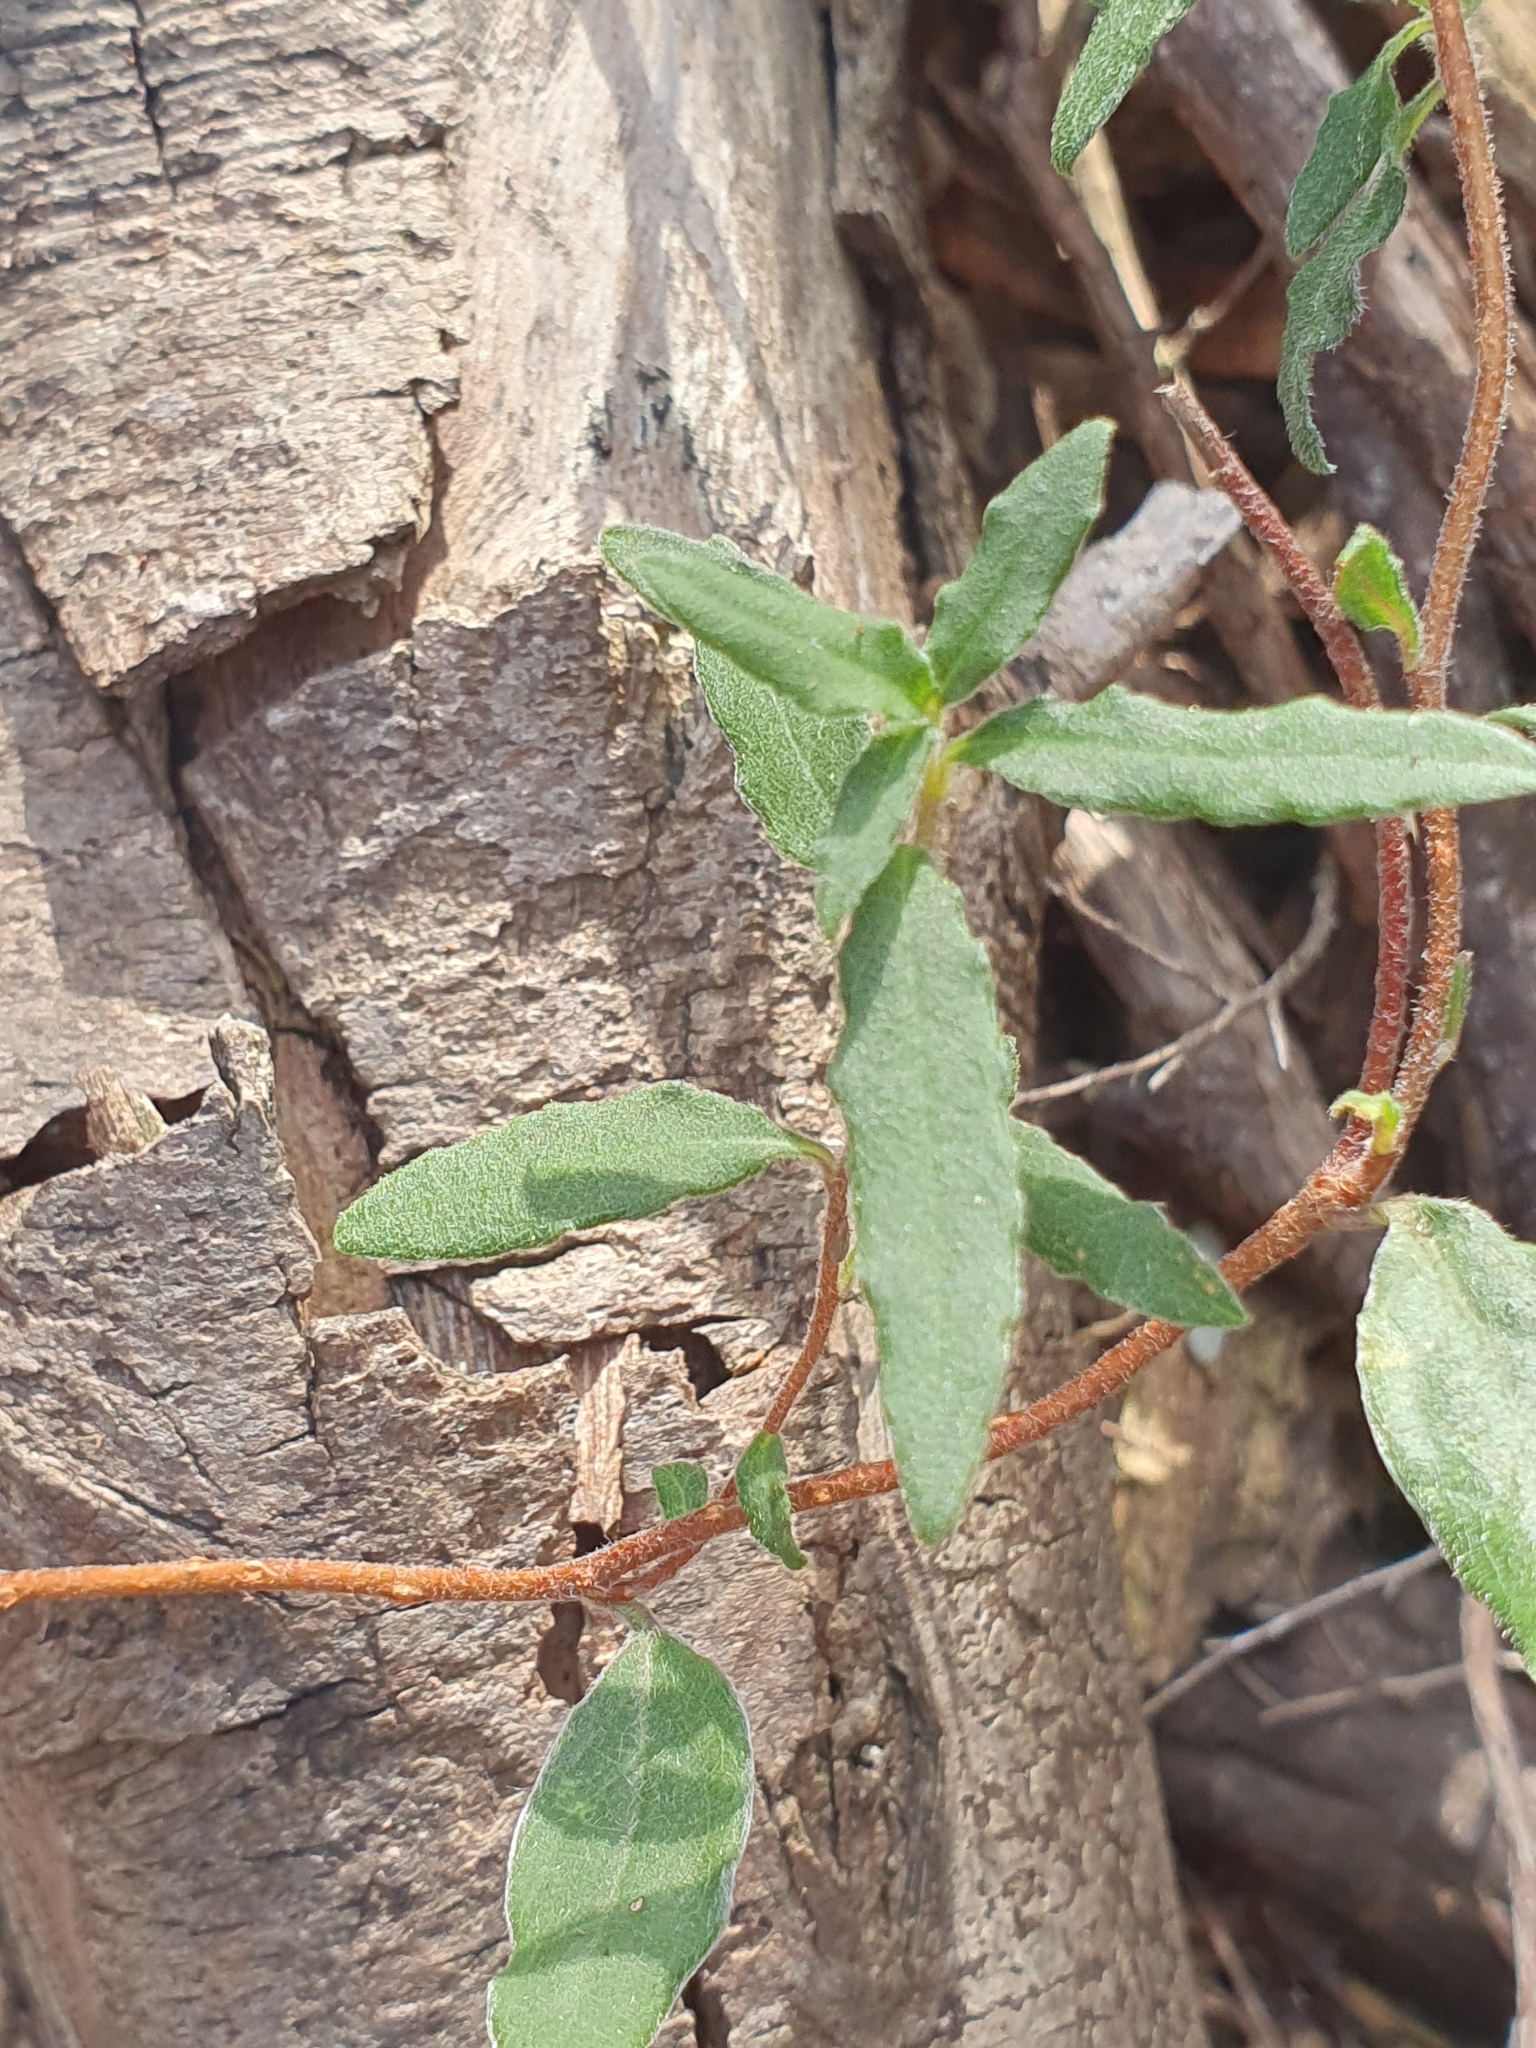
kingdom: Plantae
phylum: Tracheophyta
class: Magnoliopsida
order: Apiales
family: Pittosporaceae
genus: Billardiera
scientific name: Billardiera scandens
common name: Apple-berry
